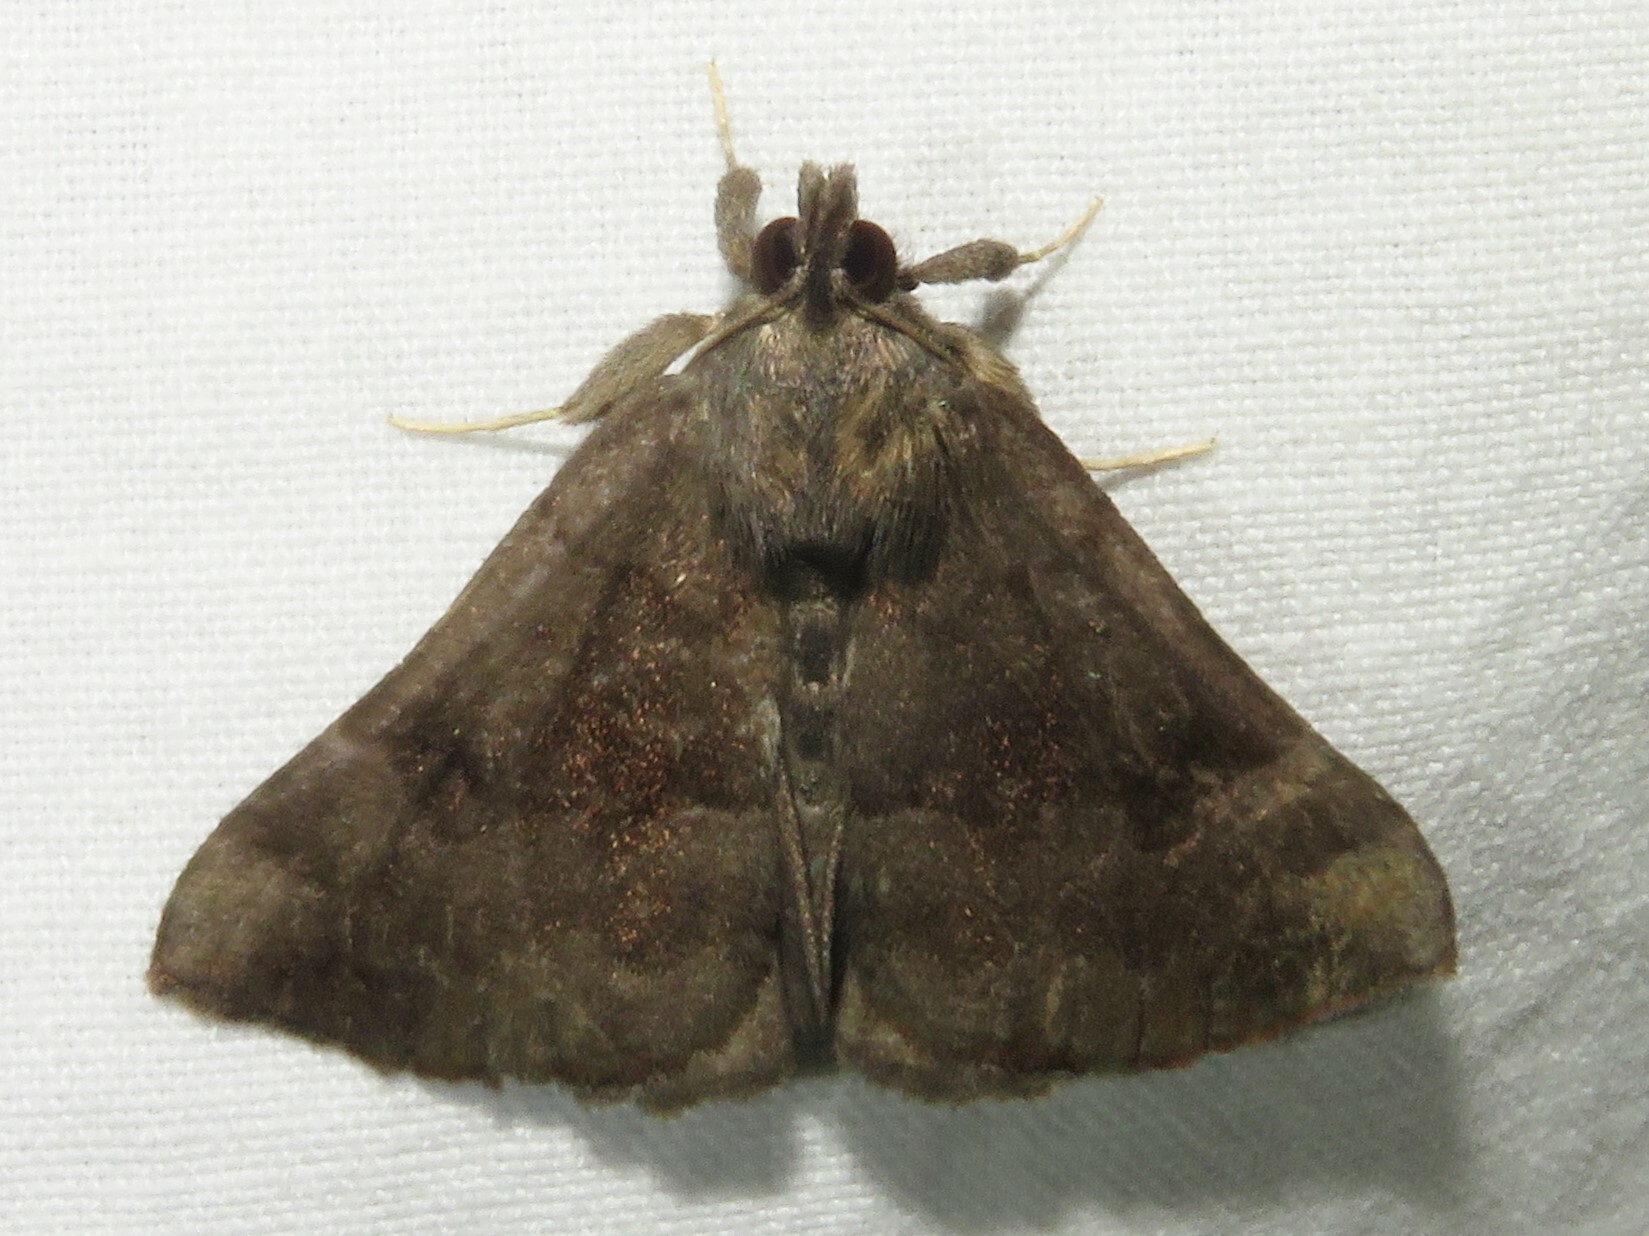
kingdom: Animalia
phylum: Arthropoda
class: Insecta
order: Lepidoptera
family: Erebidae
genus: Hypena
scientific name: Hypena madefactalis
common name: Gray-edged snout
